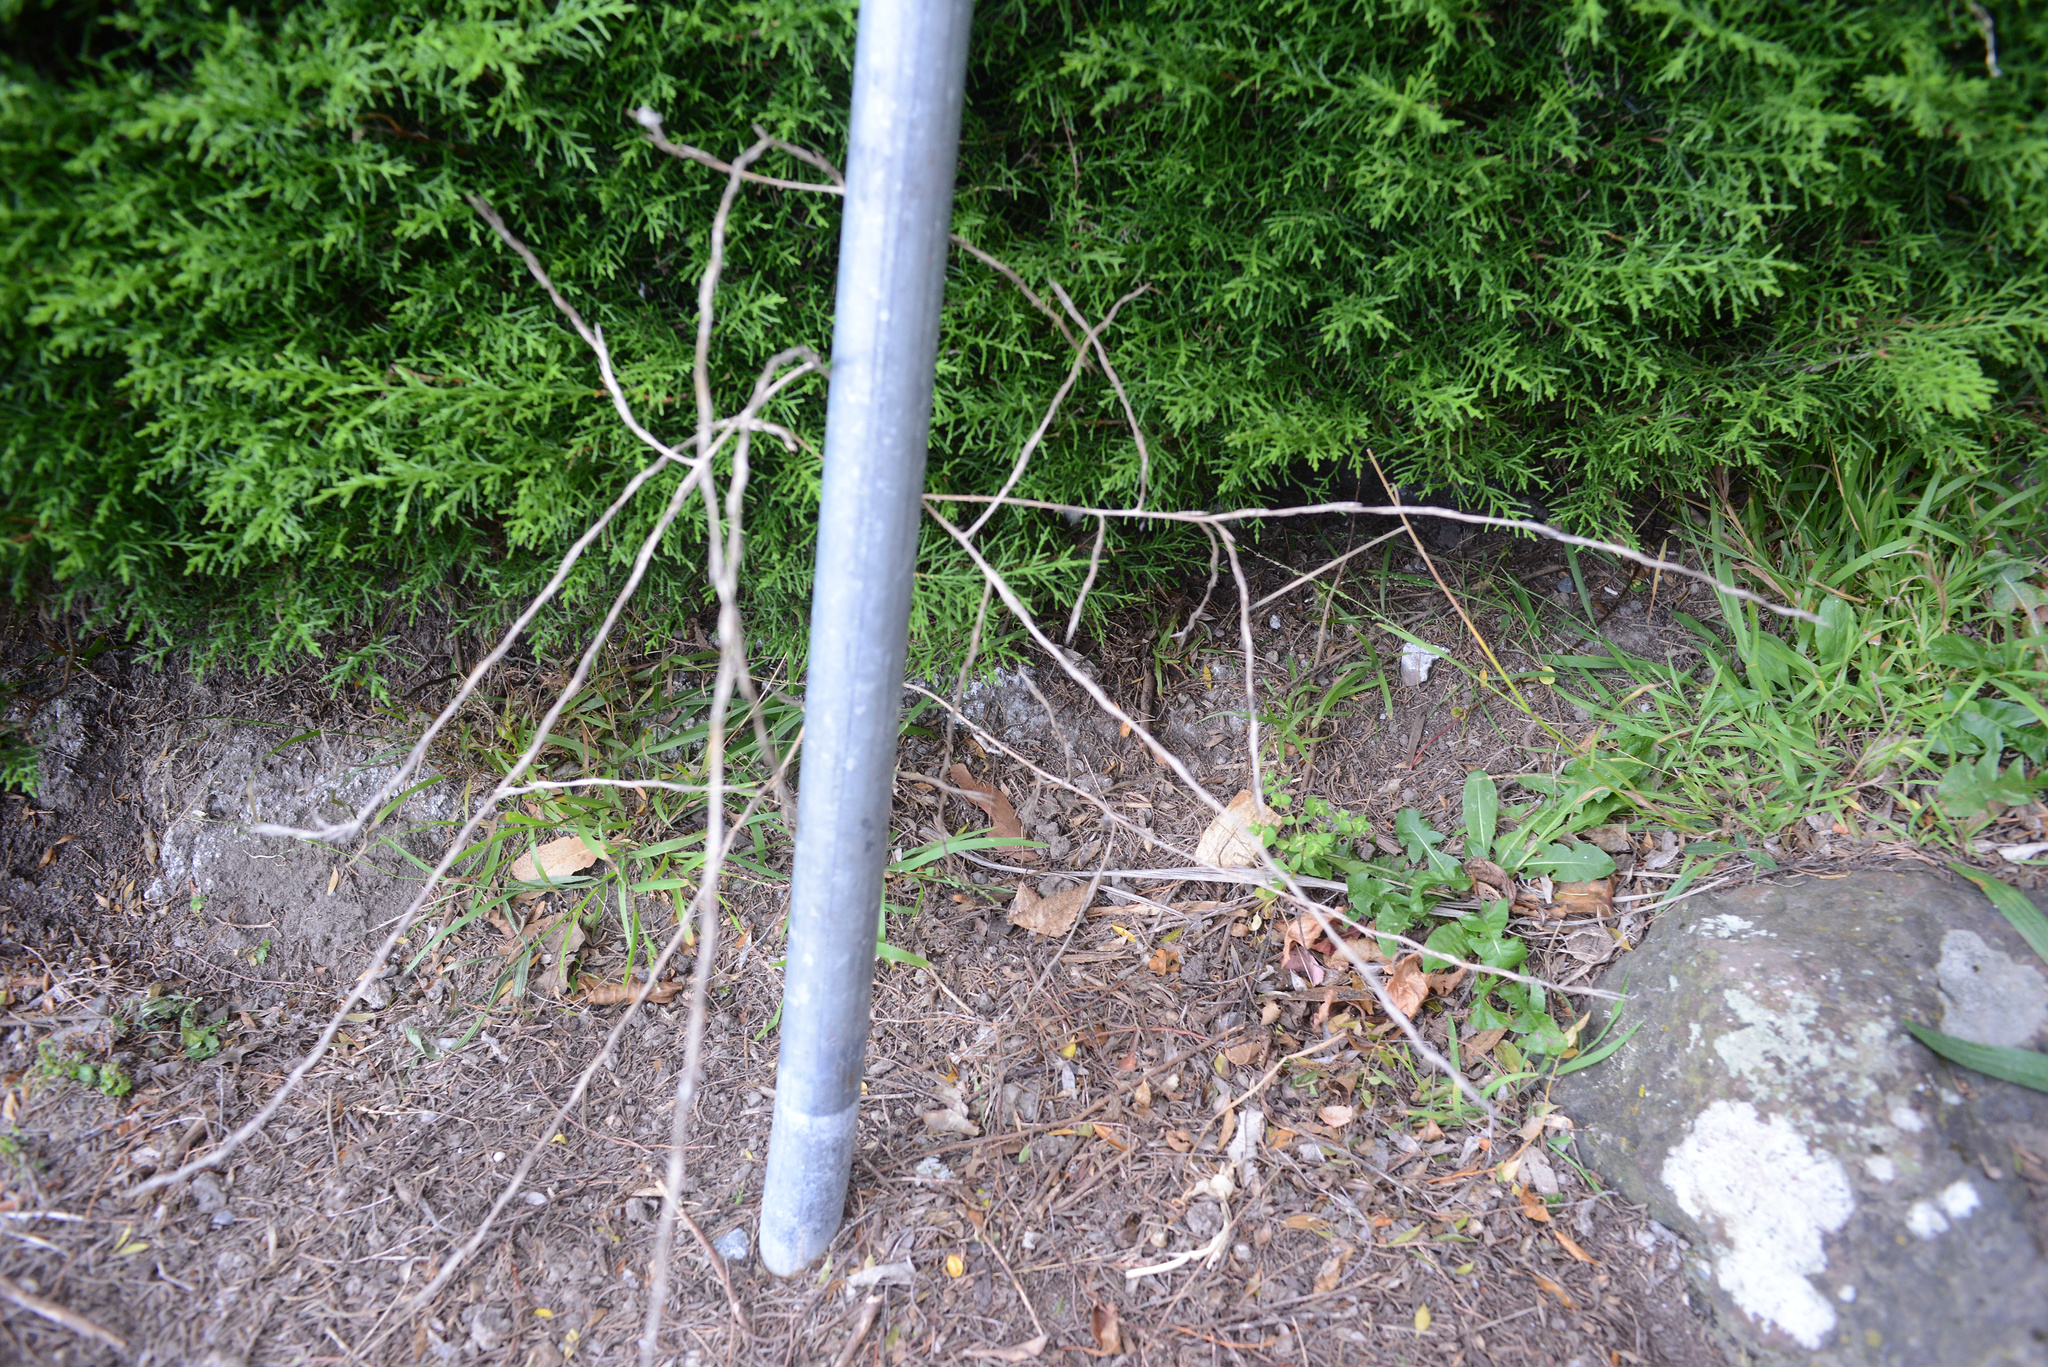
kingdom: Plantae
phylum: Tracheophyta
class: Magnoliopsida
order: Brassicales
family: Brassicaceae
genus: Sisymbrium
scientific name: Sisymbrium officinale
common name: Hedge mustard
